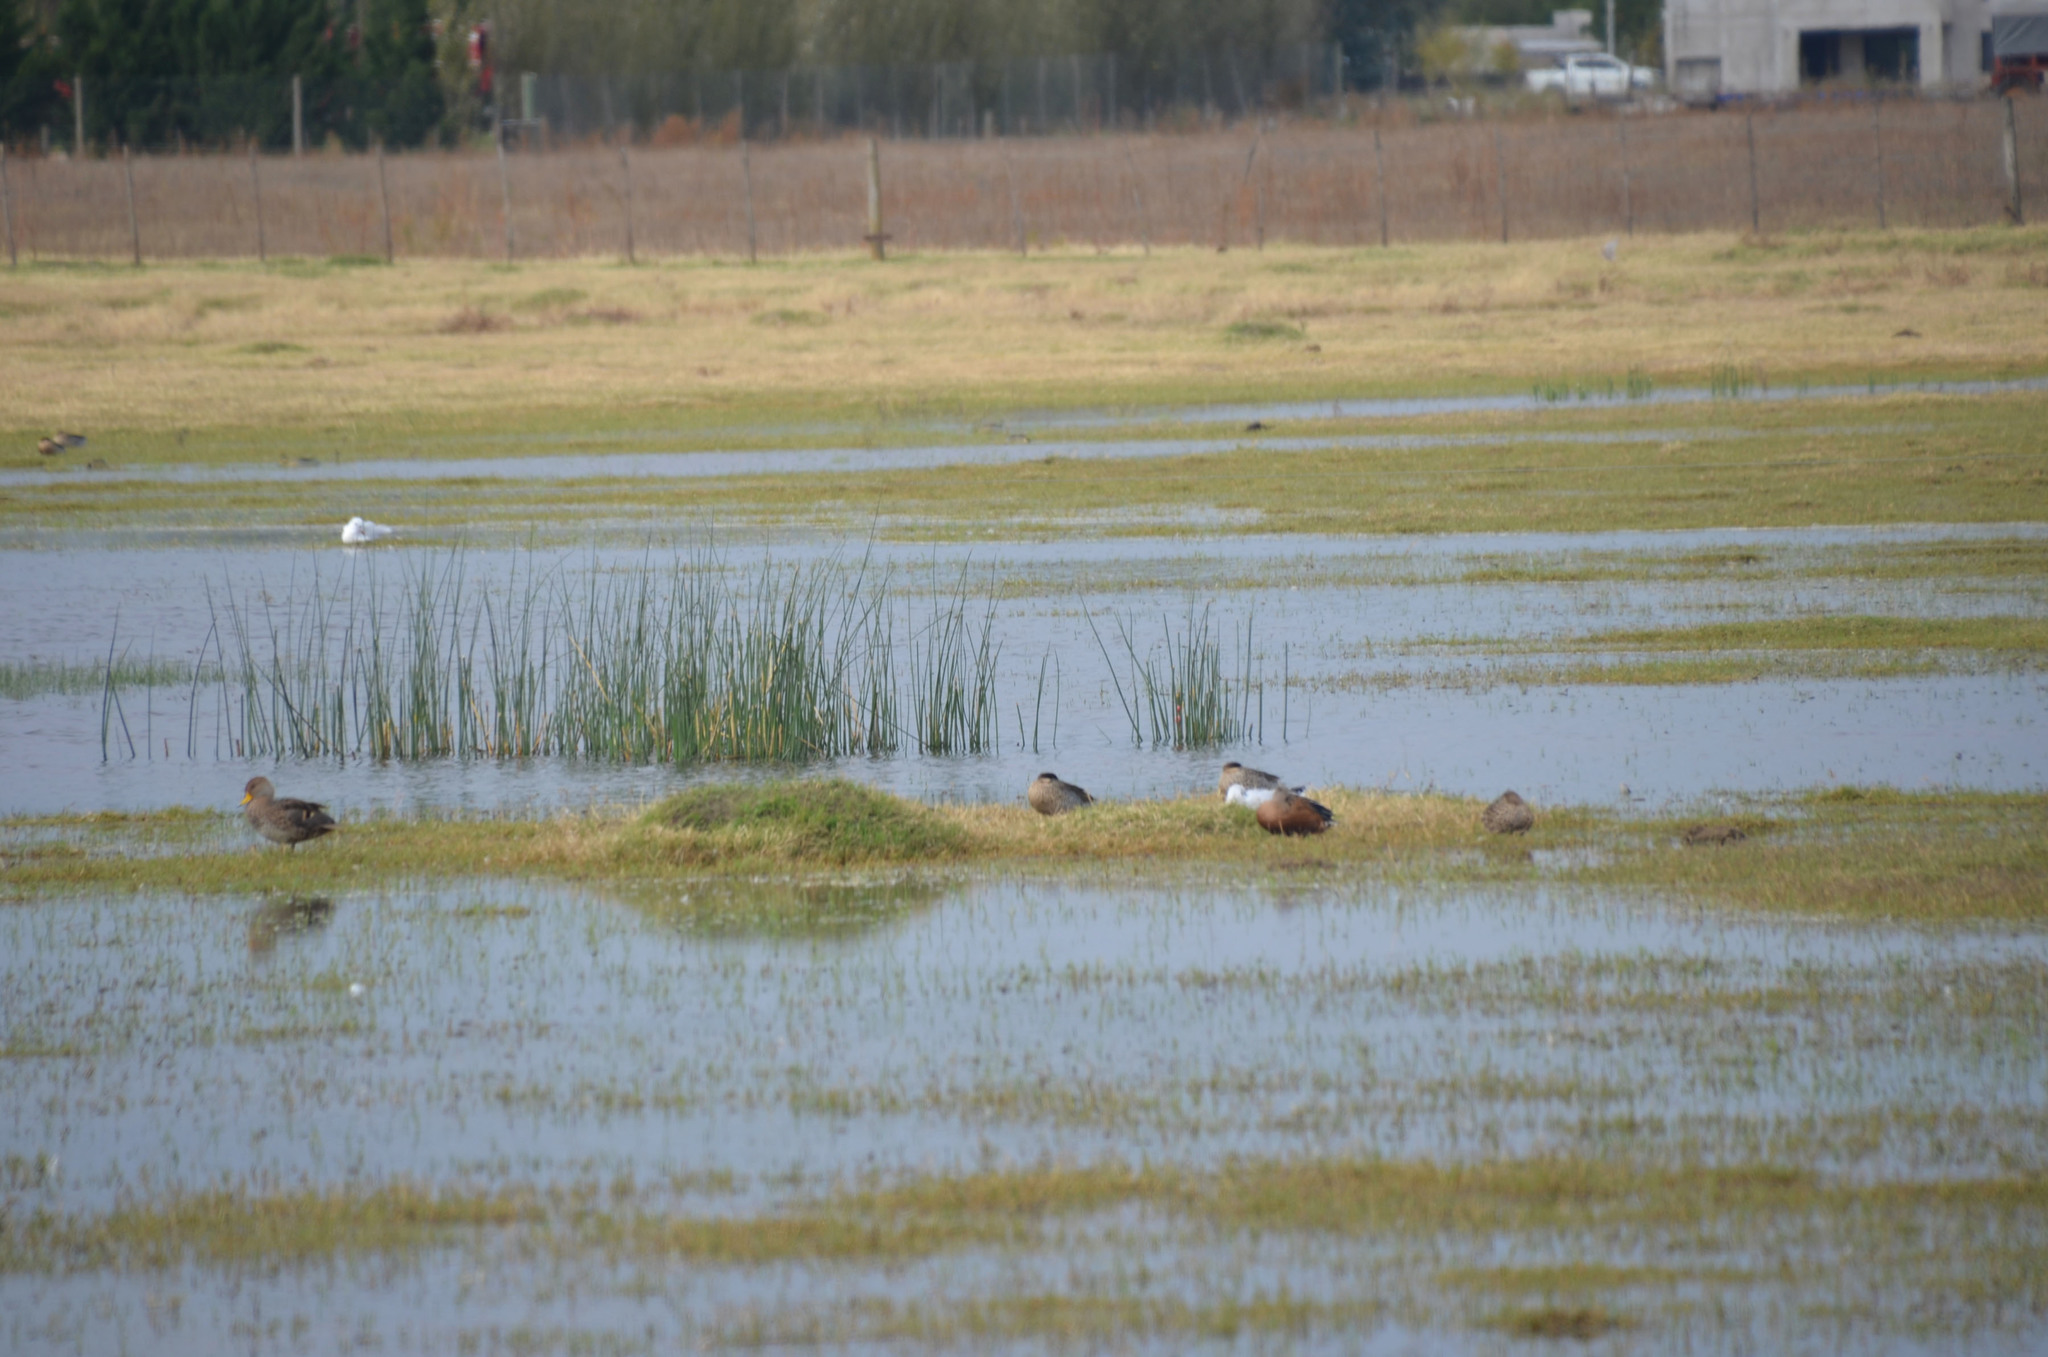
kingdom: Animalia
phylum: Chordata
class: Aves
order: Anseriformes
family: Anatidae
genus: Spatula
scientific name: Spatula versicolor
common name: Silver teal
